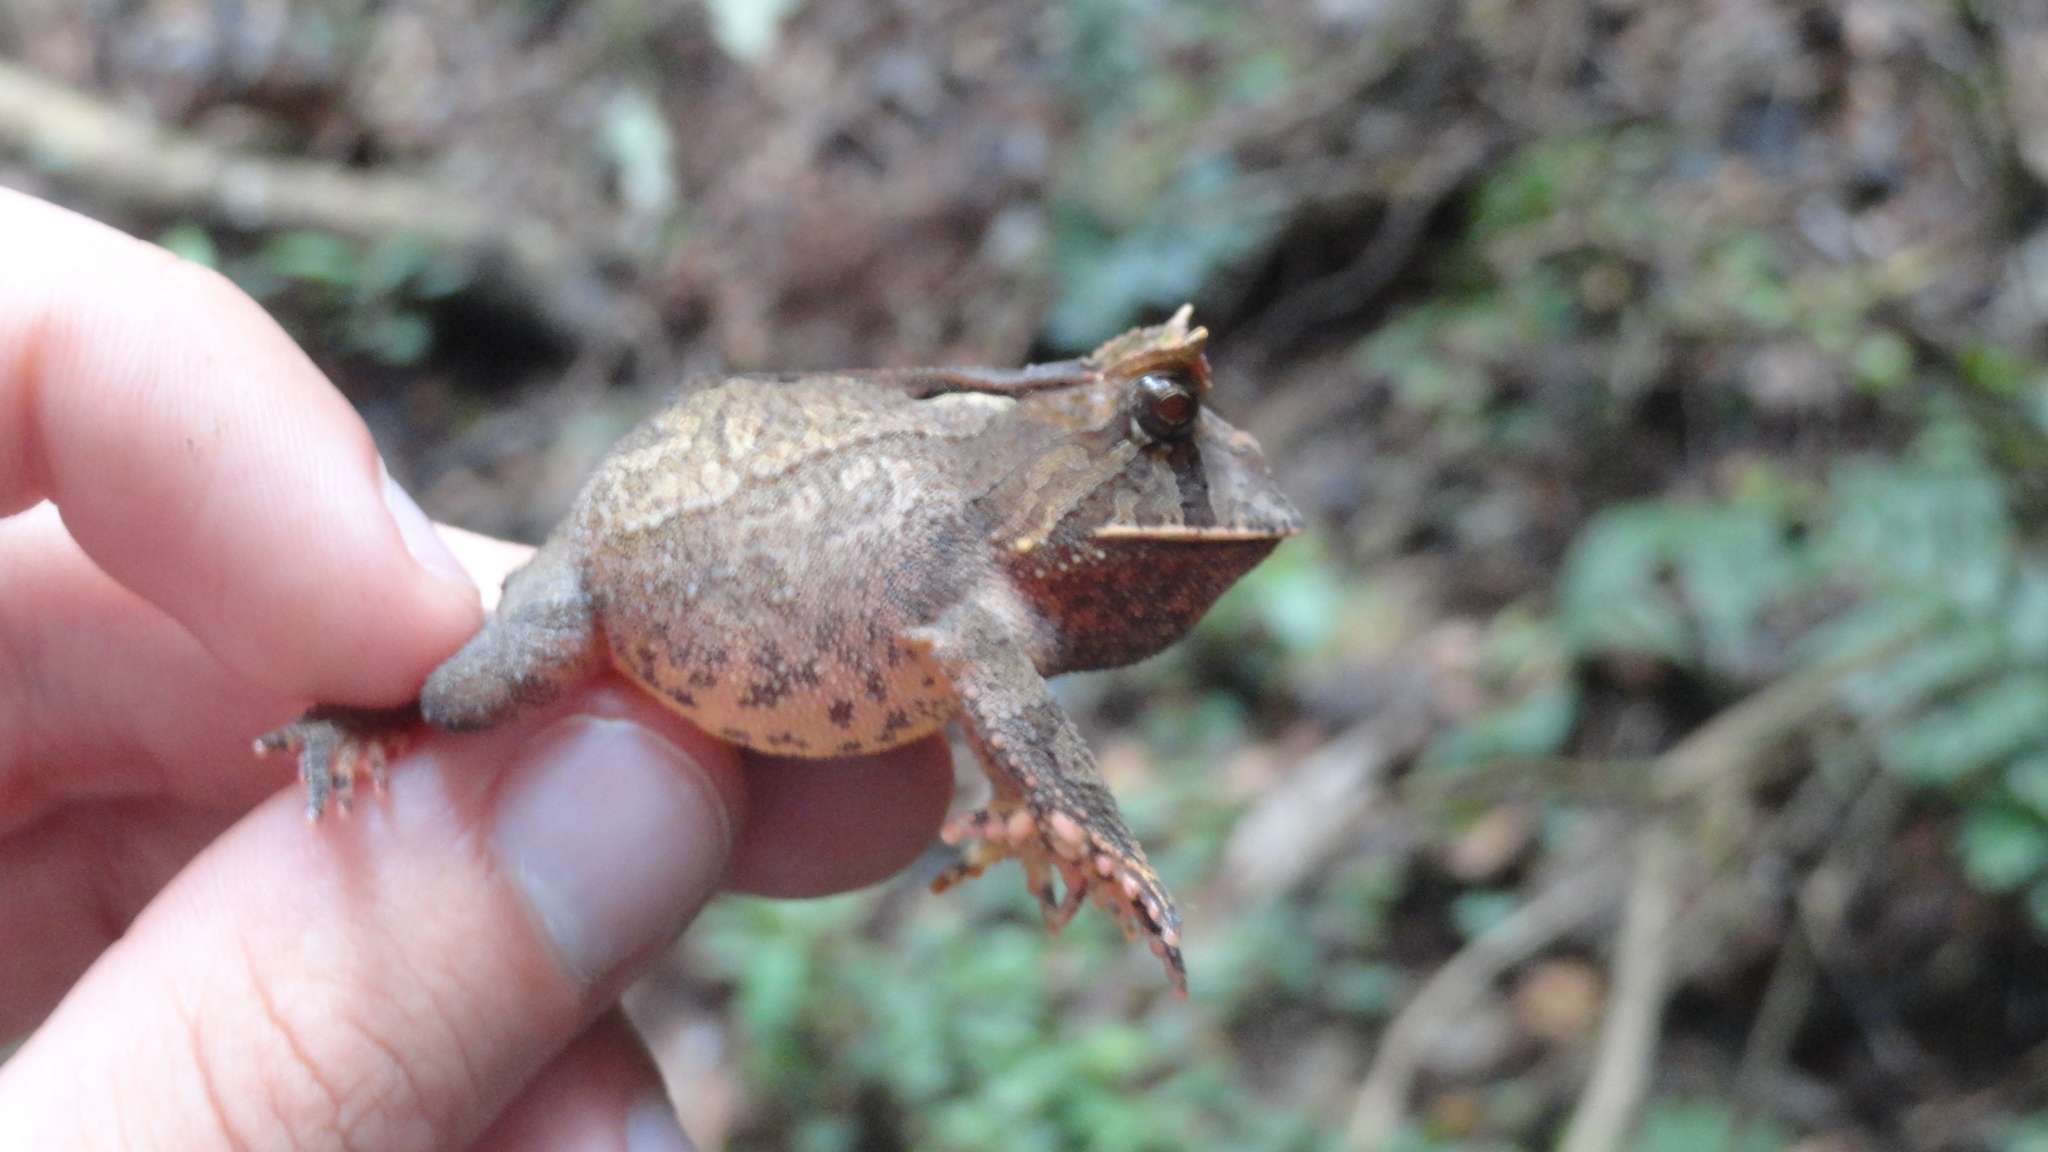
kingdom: Animalia
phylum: Chordata
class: Amphibia
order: Anura
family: Odontophrynidae
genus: Proceratophrys
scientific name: Proceratophrys boiei
